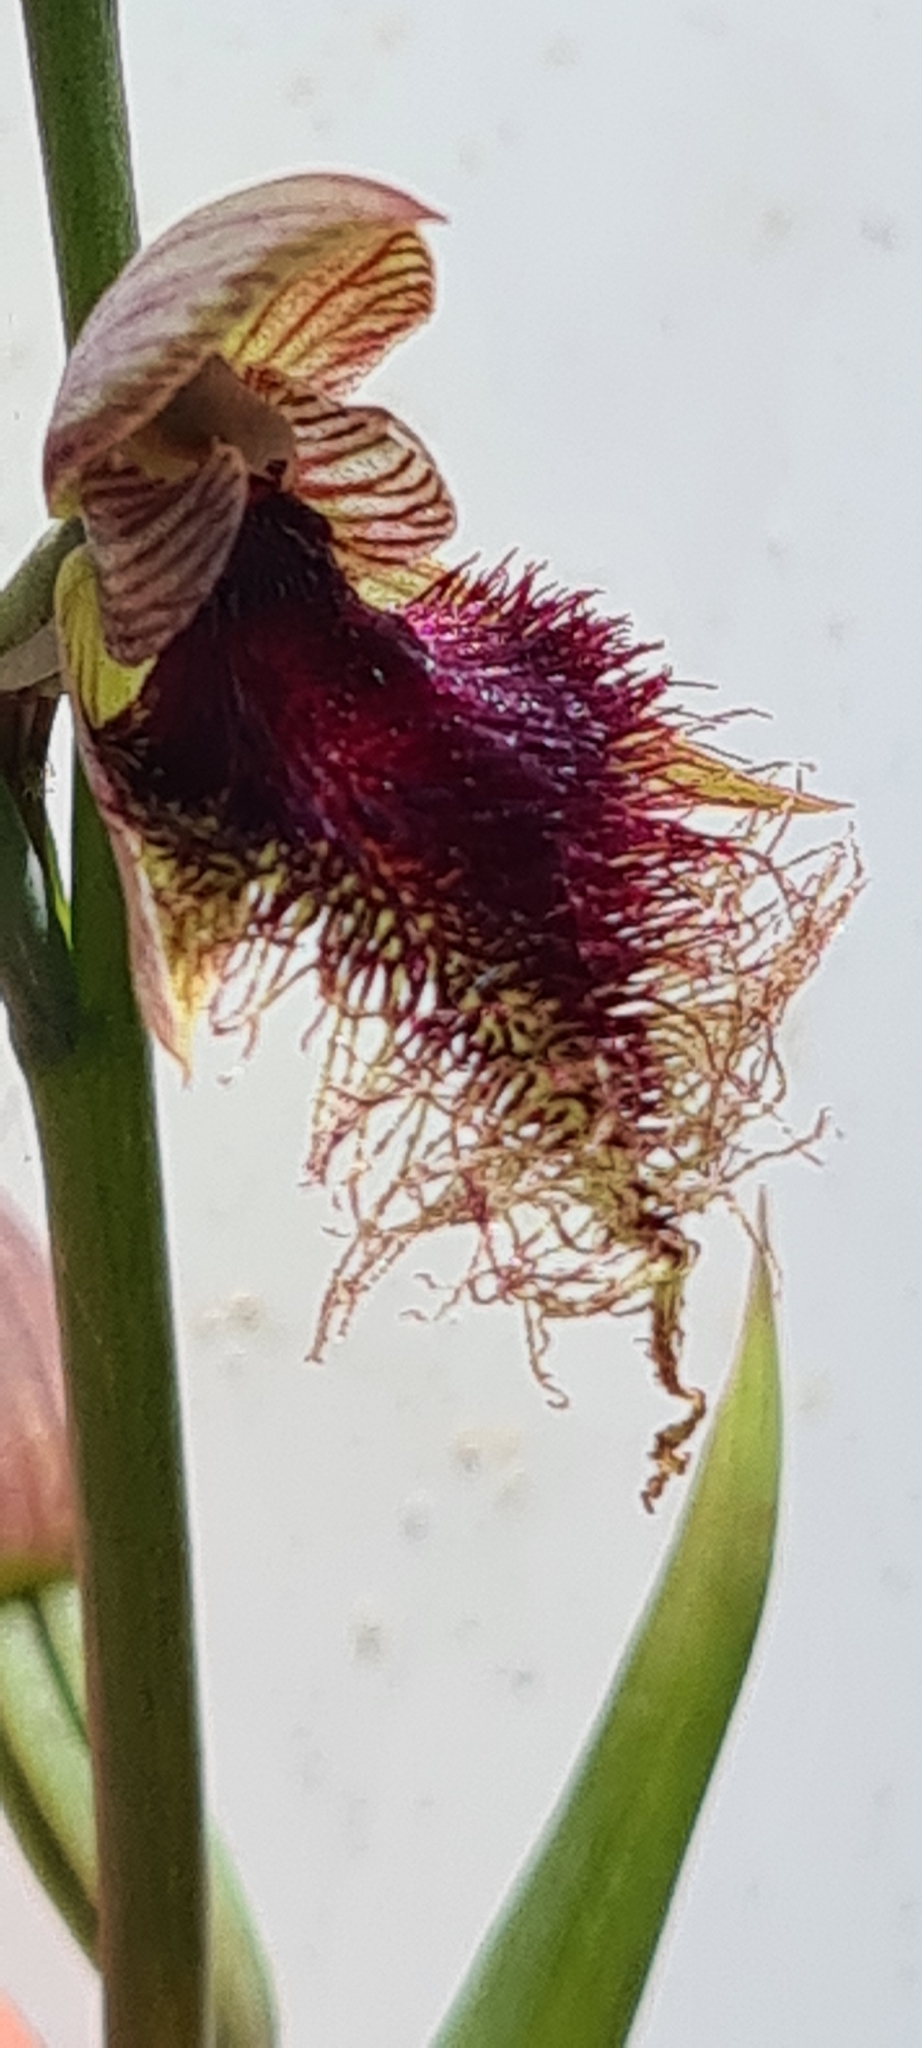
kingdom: Plantae
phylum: Tracheophyta
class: Liliopsida
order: Asparagales
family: Orchidaceae
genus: Calochilus
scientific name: Calochilus robertsonii
